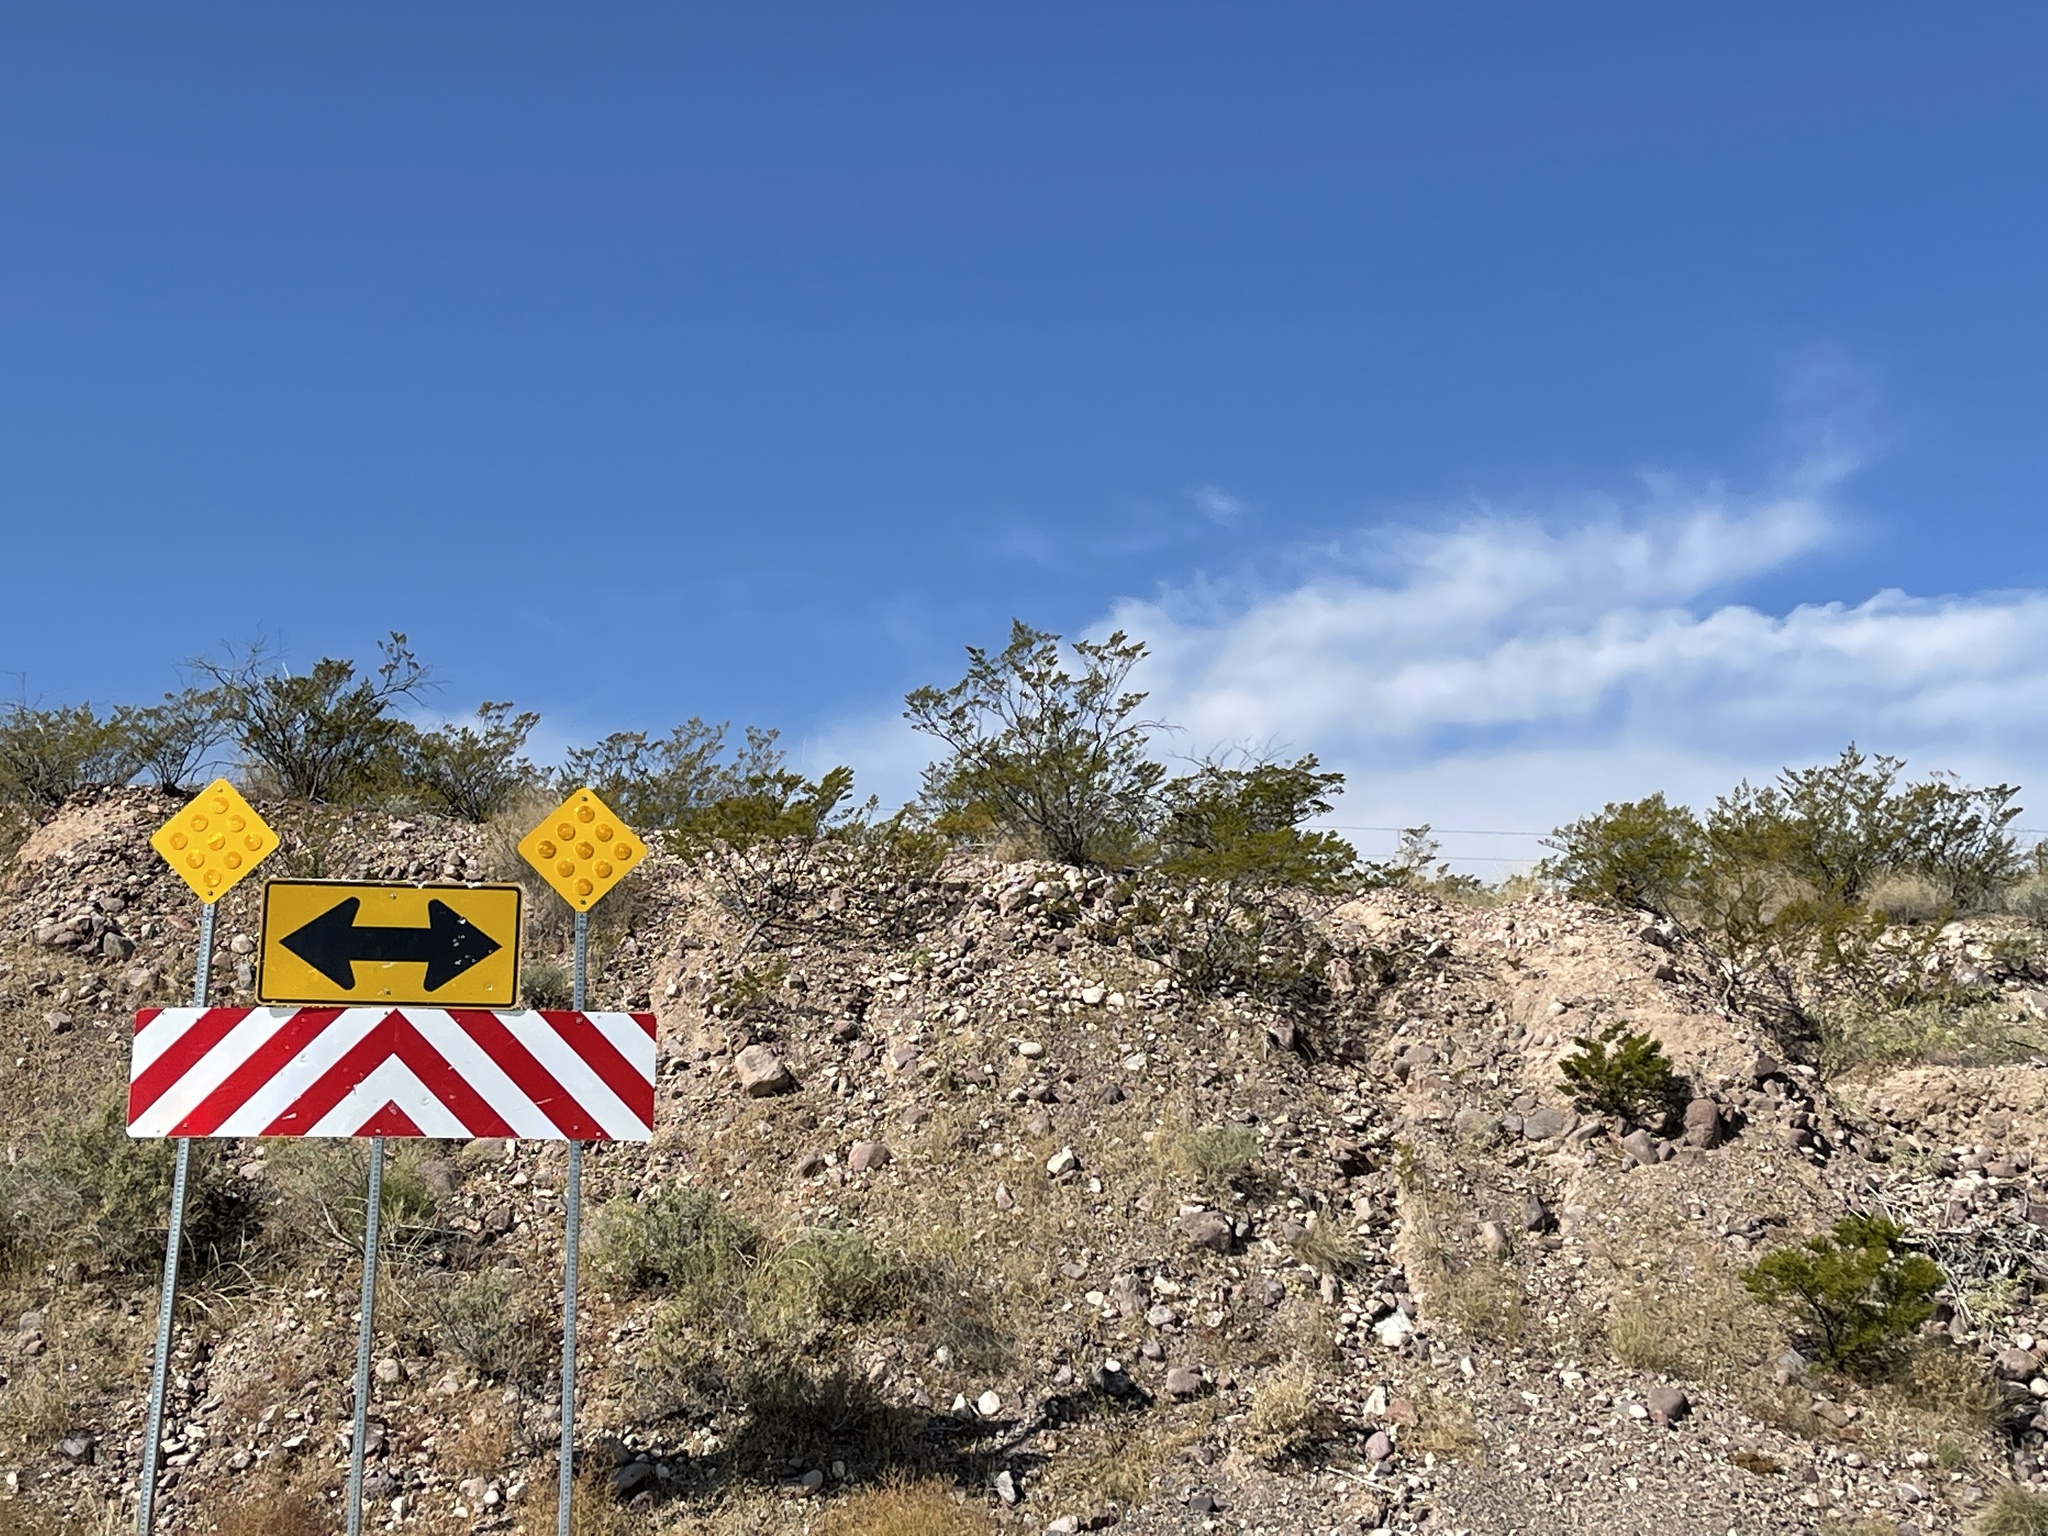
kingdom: Plantae
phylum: Tracheophyta
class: Magnoliopsida
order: Zygophyllales
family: Zygophyllaceae
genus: Larrea
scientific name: Larrea tridentata
